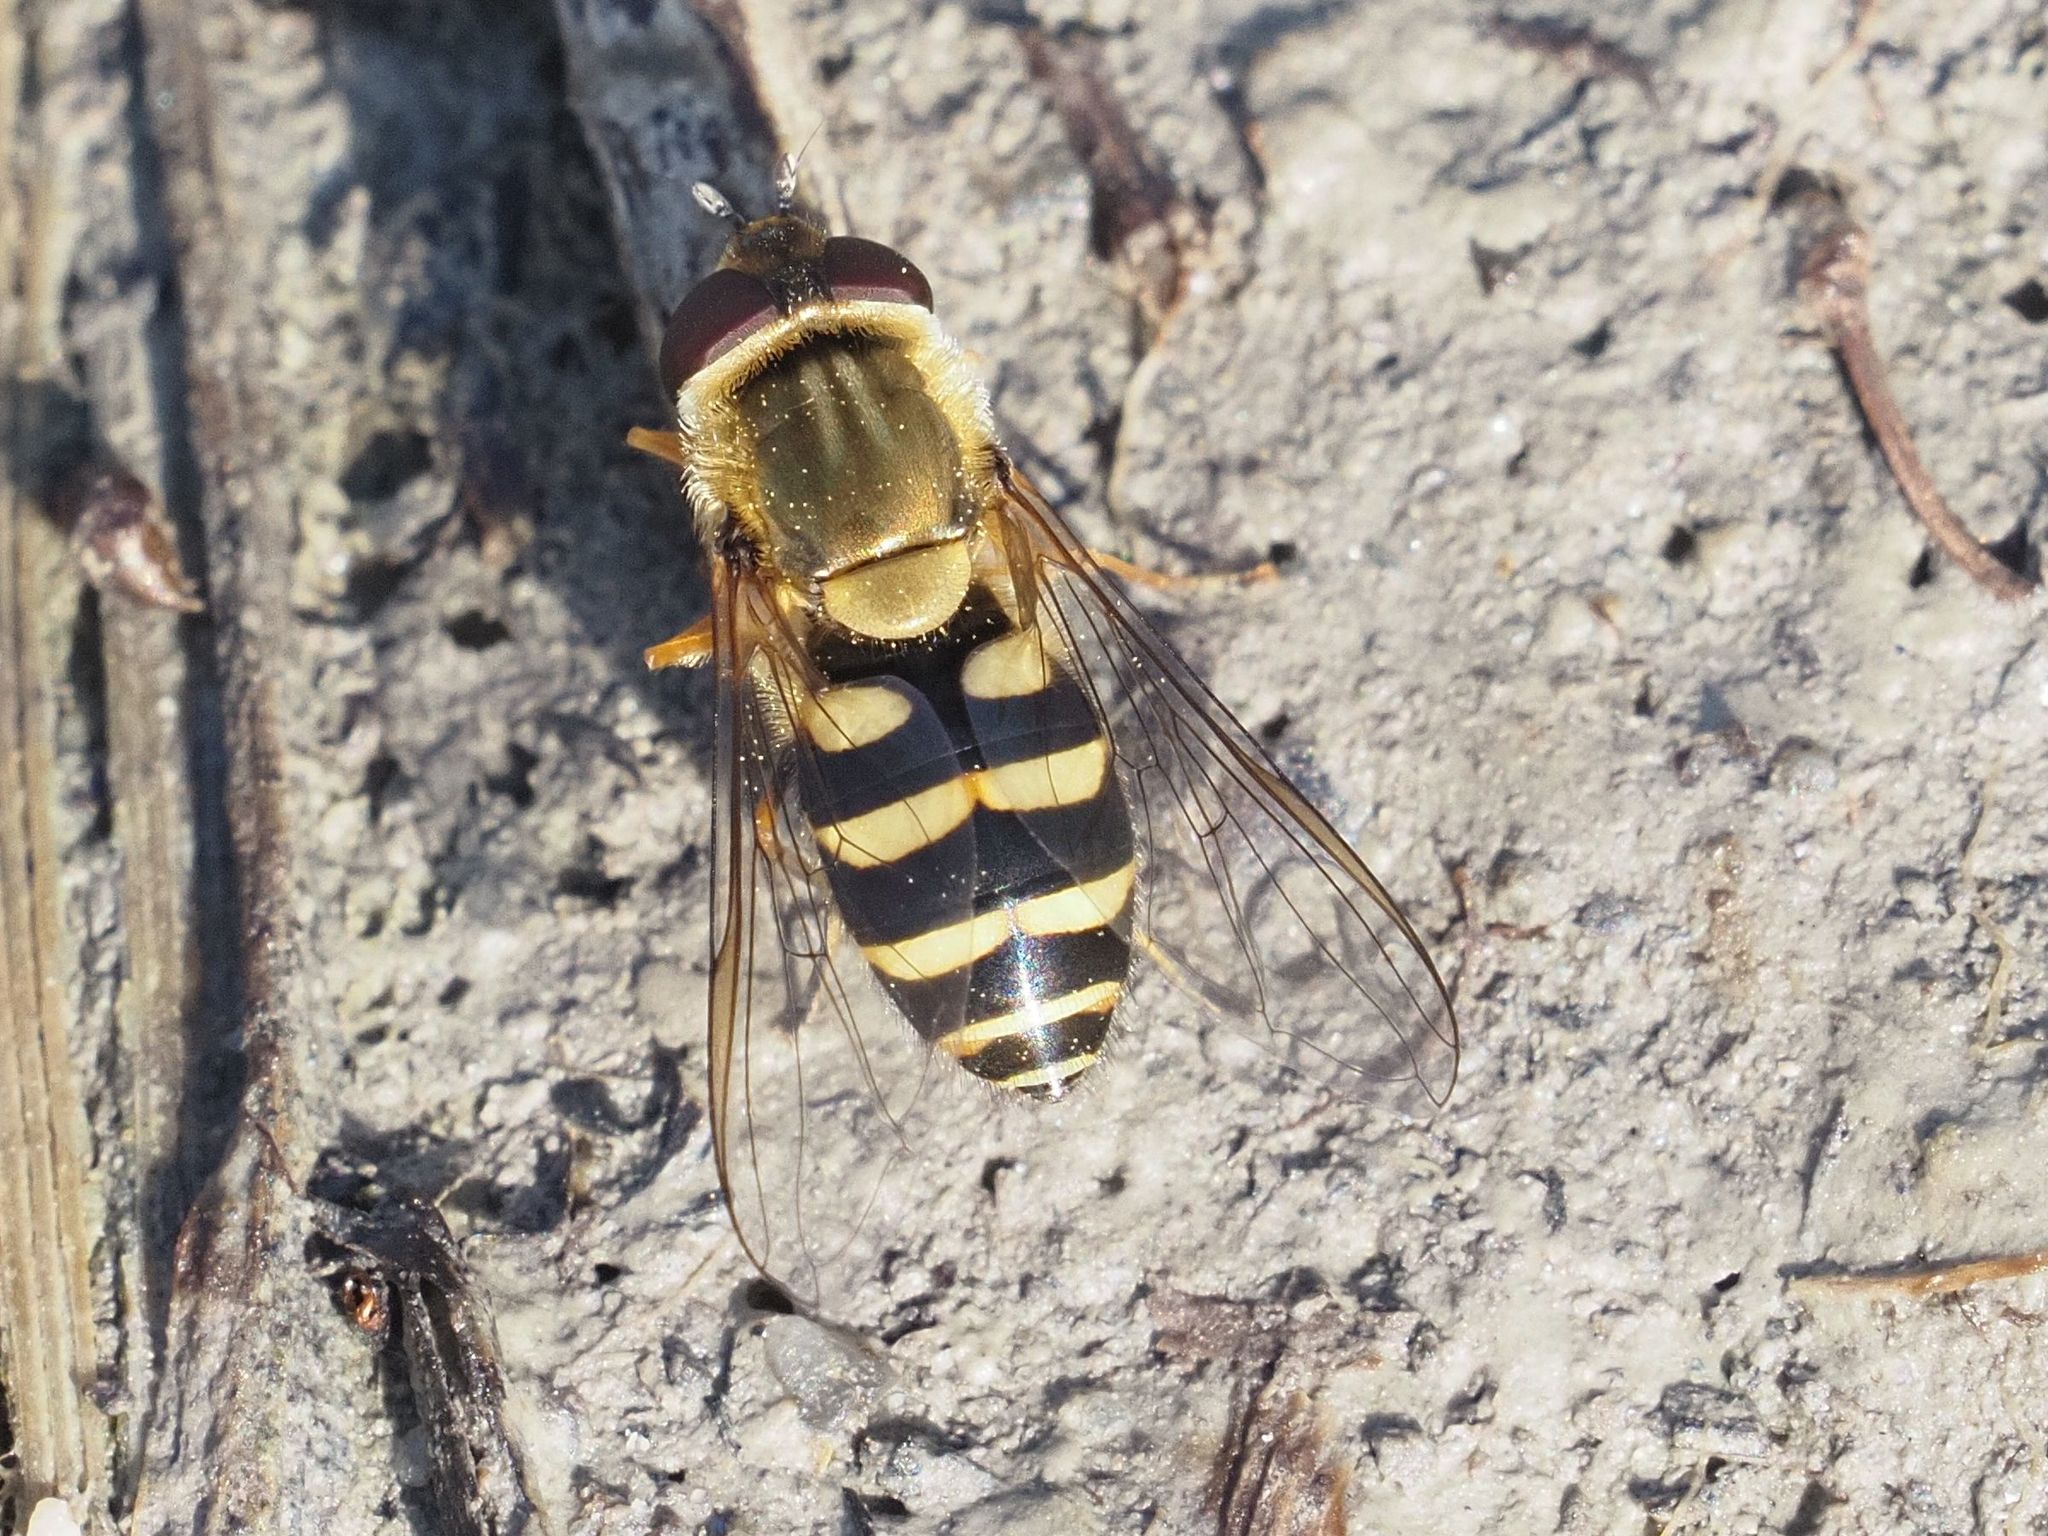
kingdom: Animalia
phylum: Arthropoda
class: Insecta
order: Diptera
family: Syrphidae
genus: Syrphus
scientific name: Syrphus
